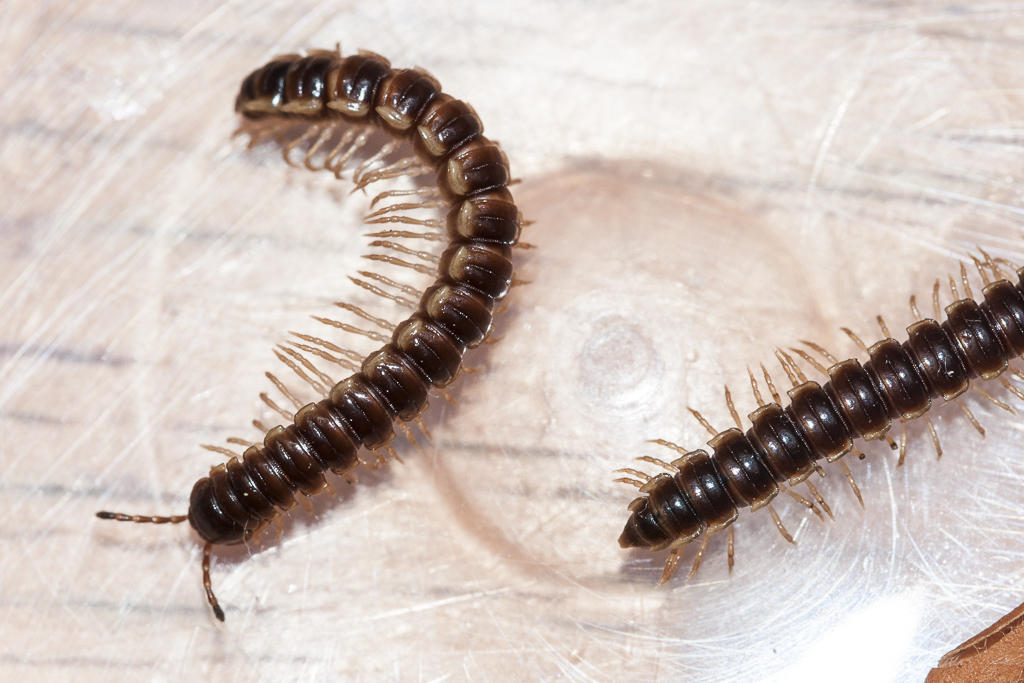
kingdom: Animalia
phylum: Arthropoda
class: Diplopoda
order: Polydesmida
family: Paradoxosomatidae
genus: Oxidus
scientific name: Oxidus gracilis
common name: Greenhouse millipede
